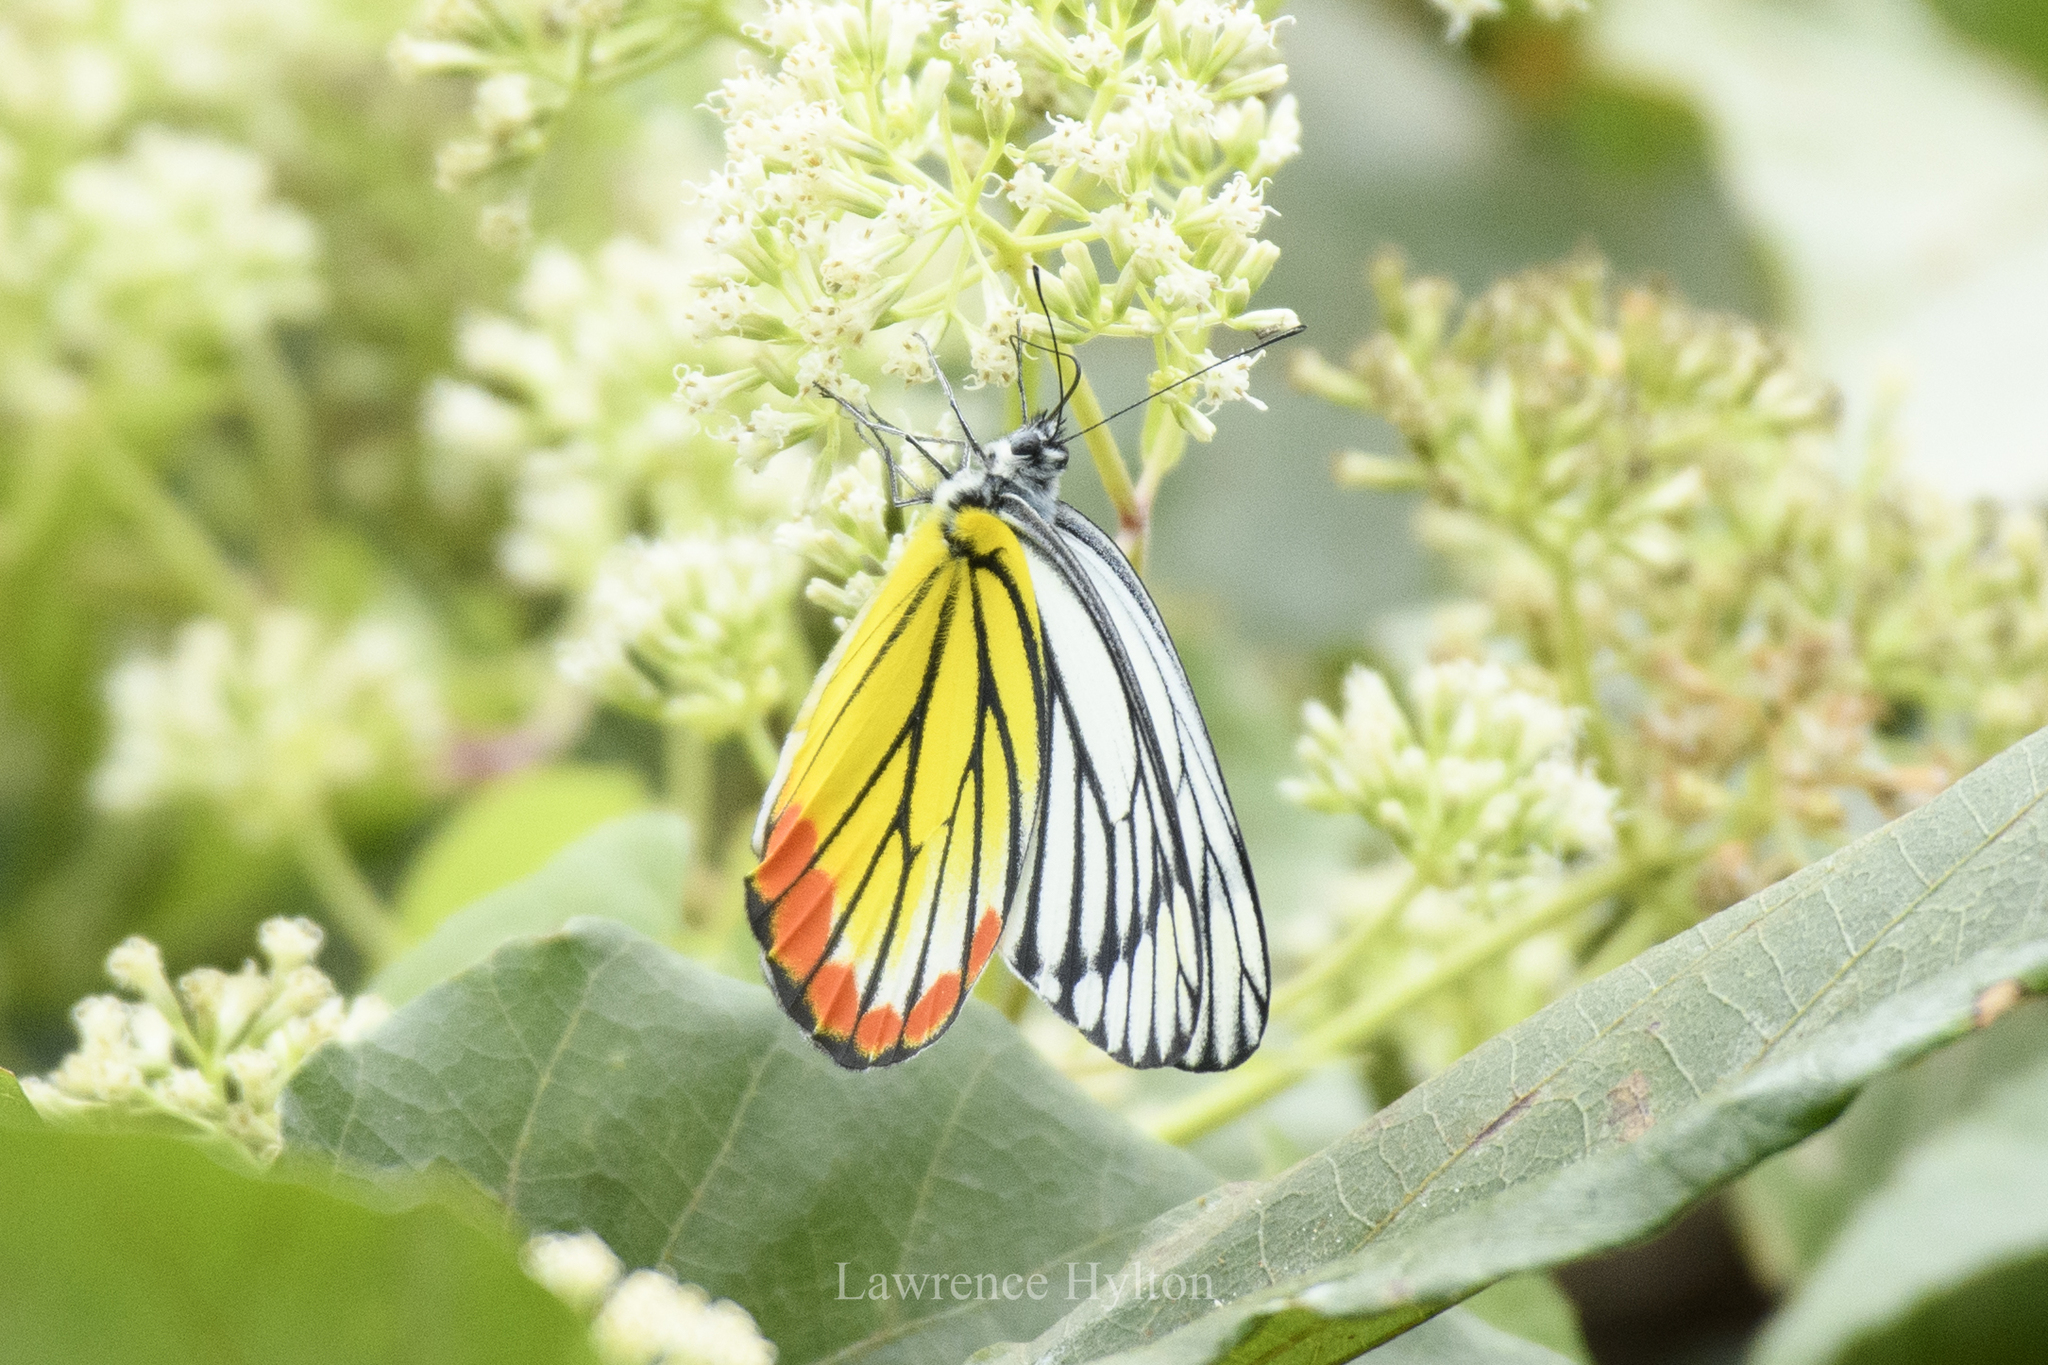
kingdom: Animalia
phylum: Arthropoda
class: Insecta
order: Lepidoptera
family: Pieridae
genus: Delias
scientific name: Delias hyparete
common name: Painted jezebel
